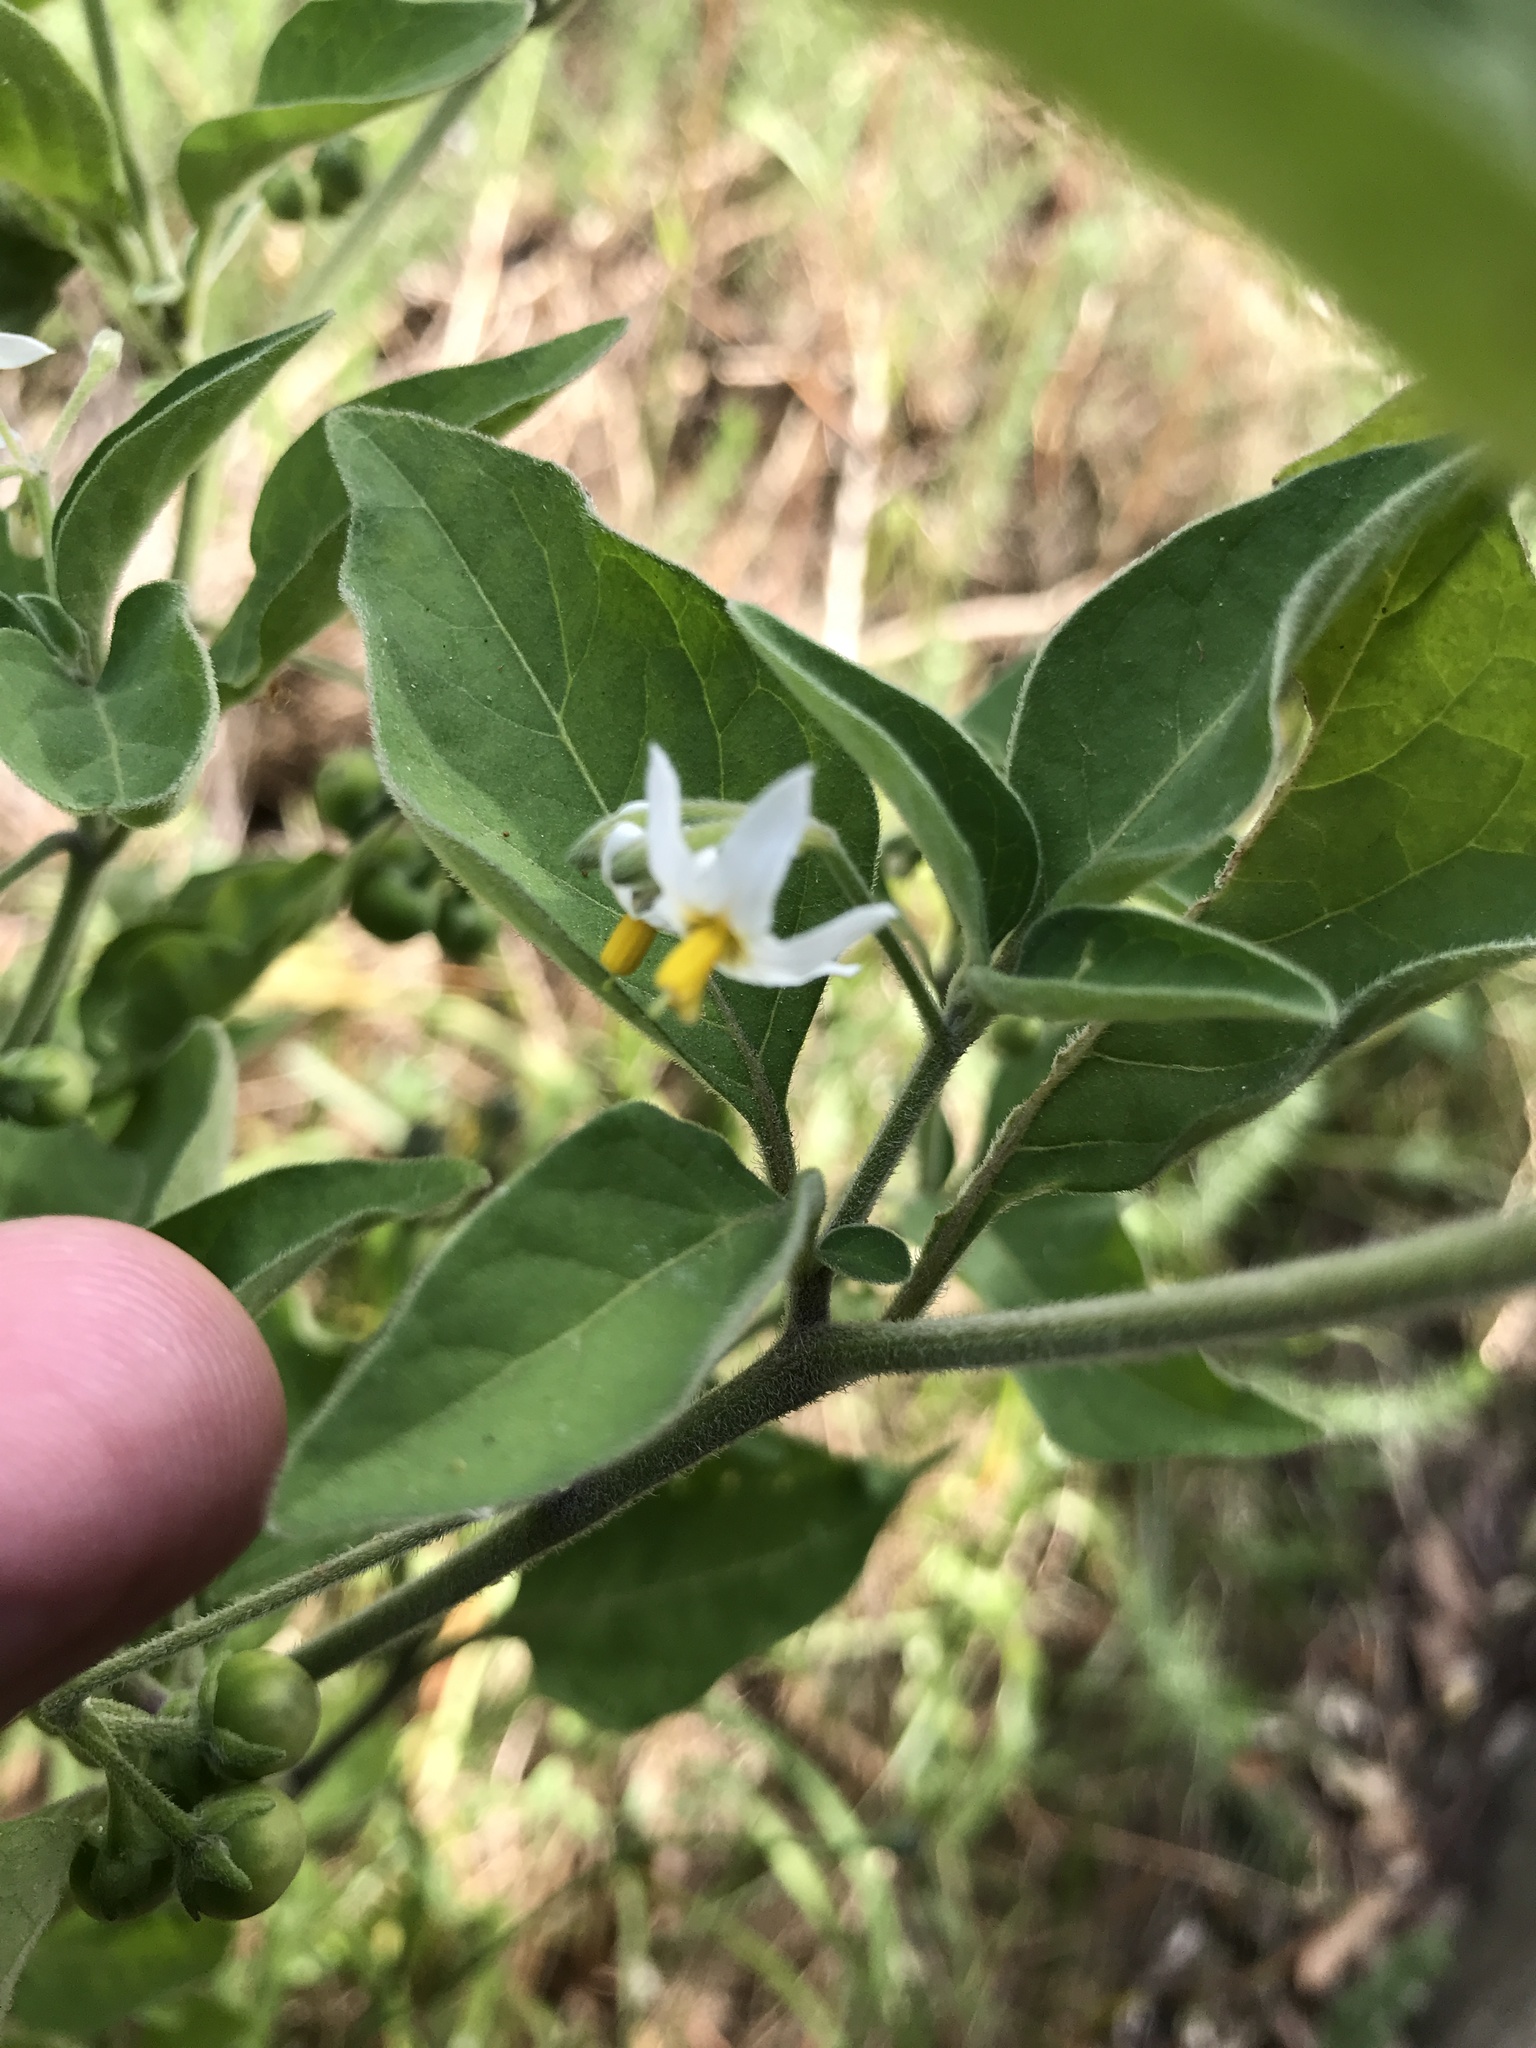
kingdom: Plantae
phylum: Tracheophyta
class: Magnoliopsida
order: Solanales
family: Solanaceae
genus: Solanum
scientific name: Solanum chenopodioides
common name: Tall nightshade
